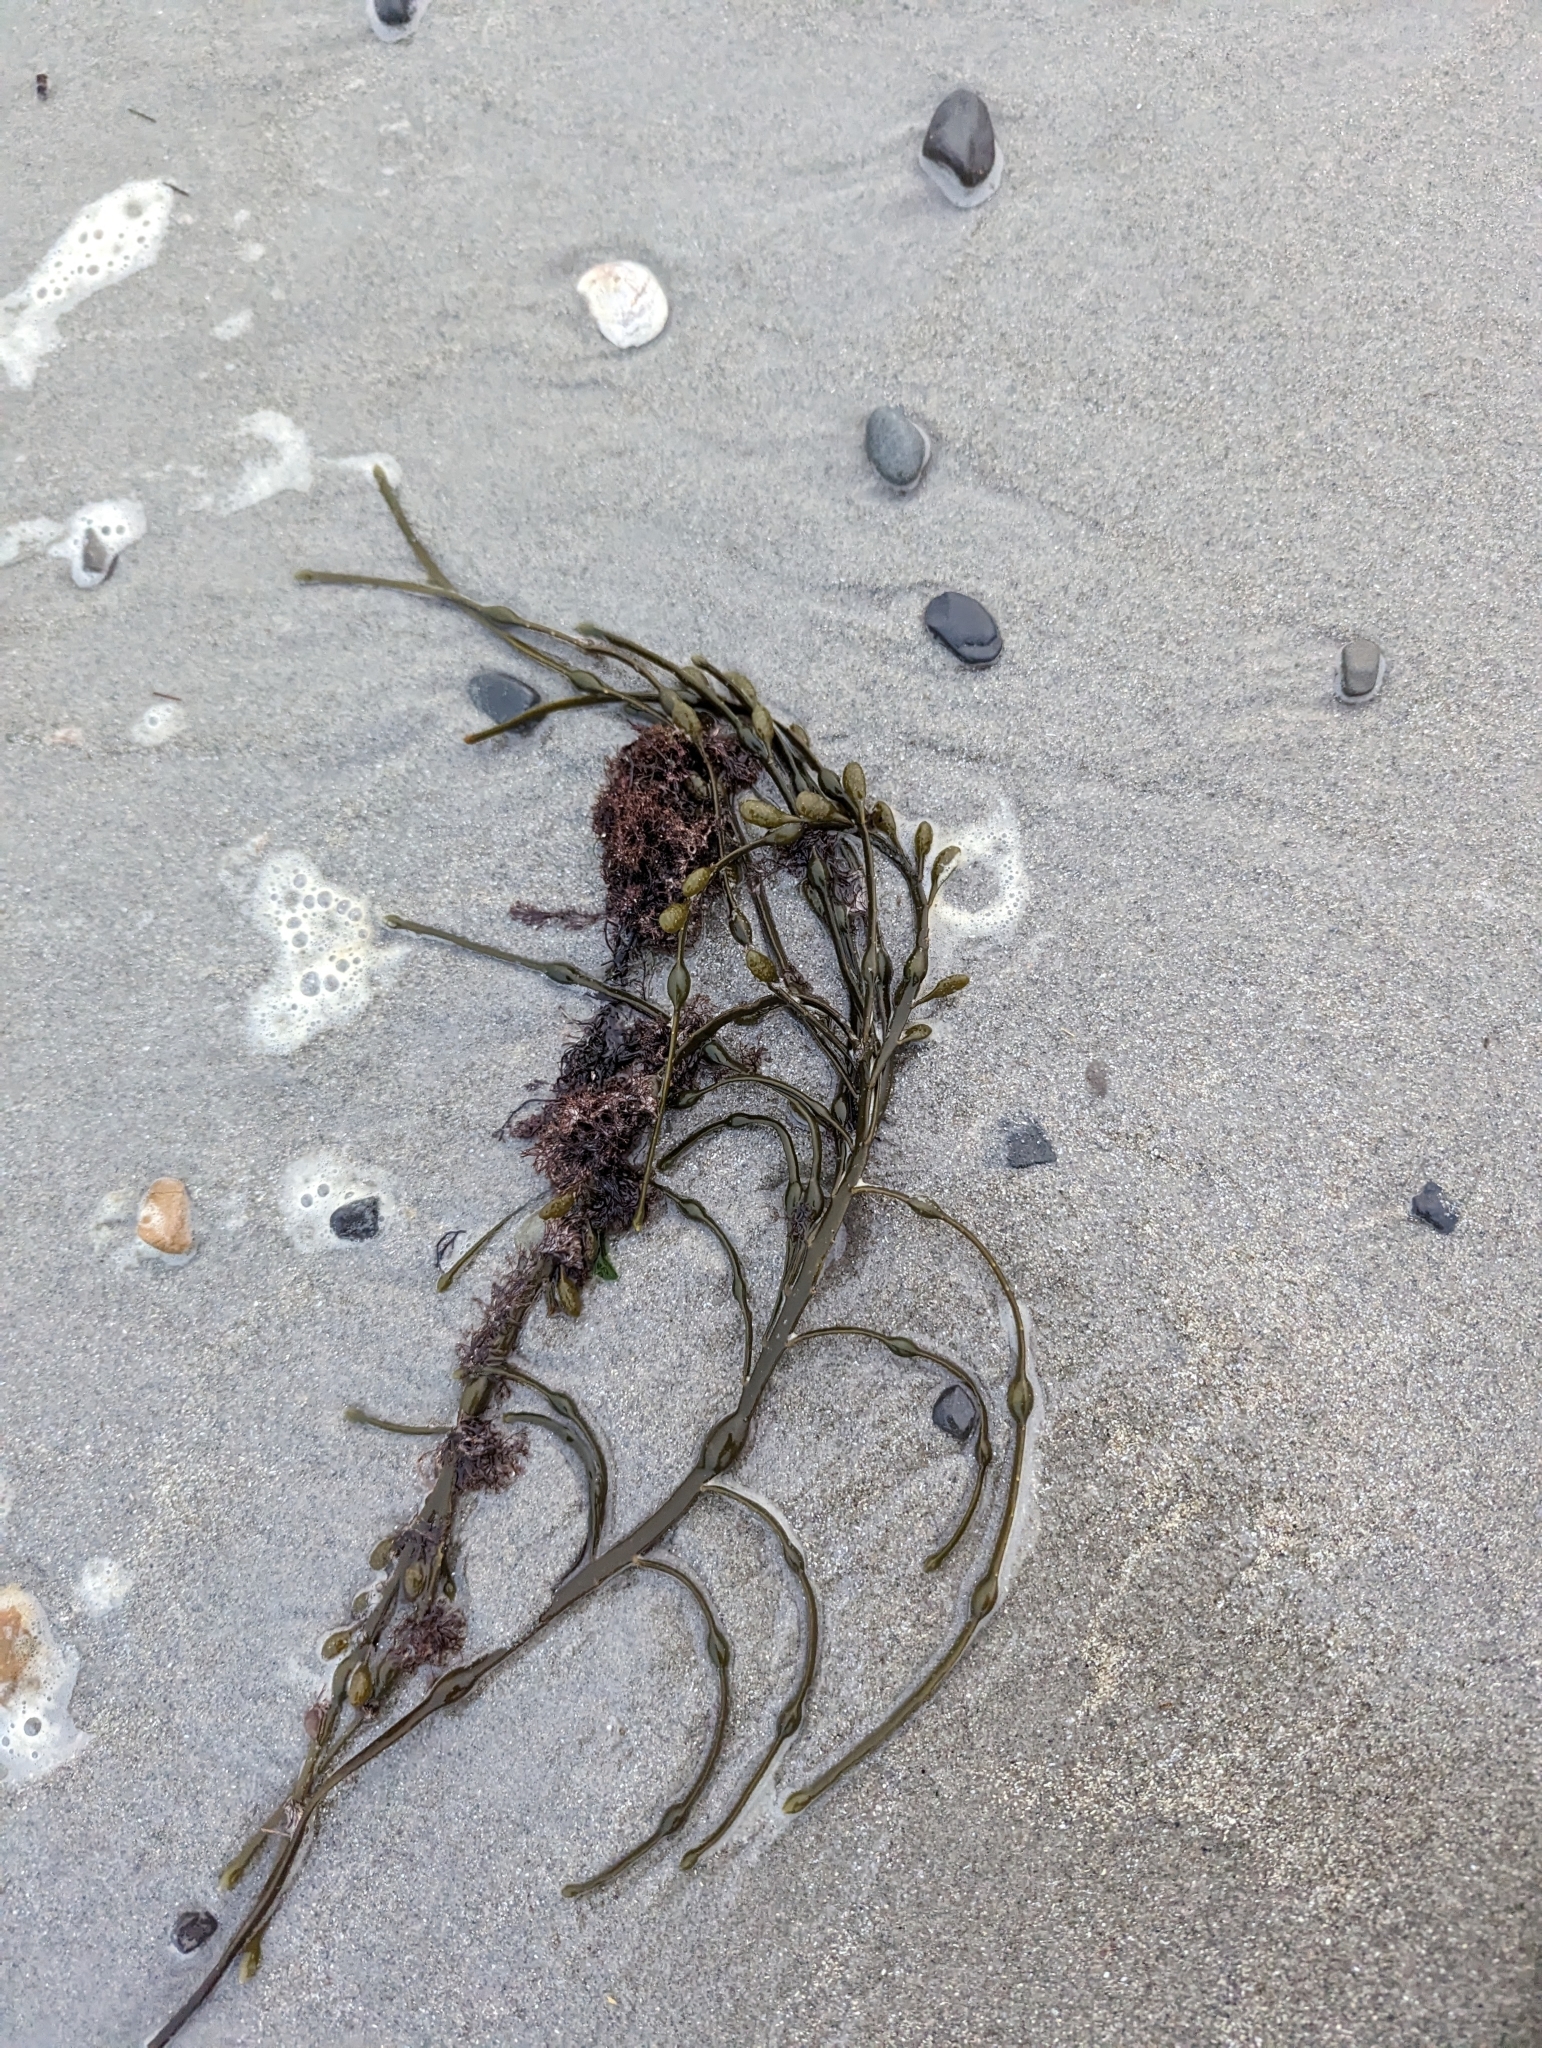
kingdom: Chromista
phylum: Ochrophyta
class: Phaeophyceae
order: Fucales
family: Fucaceae
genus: Ascophyllum
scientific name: Ascophyllum nodosum
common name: Knotted wrack
